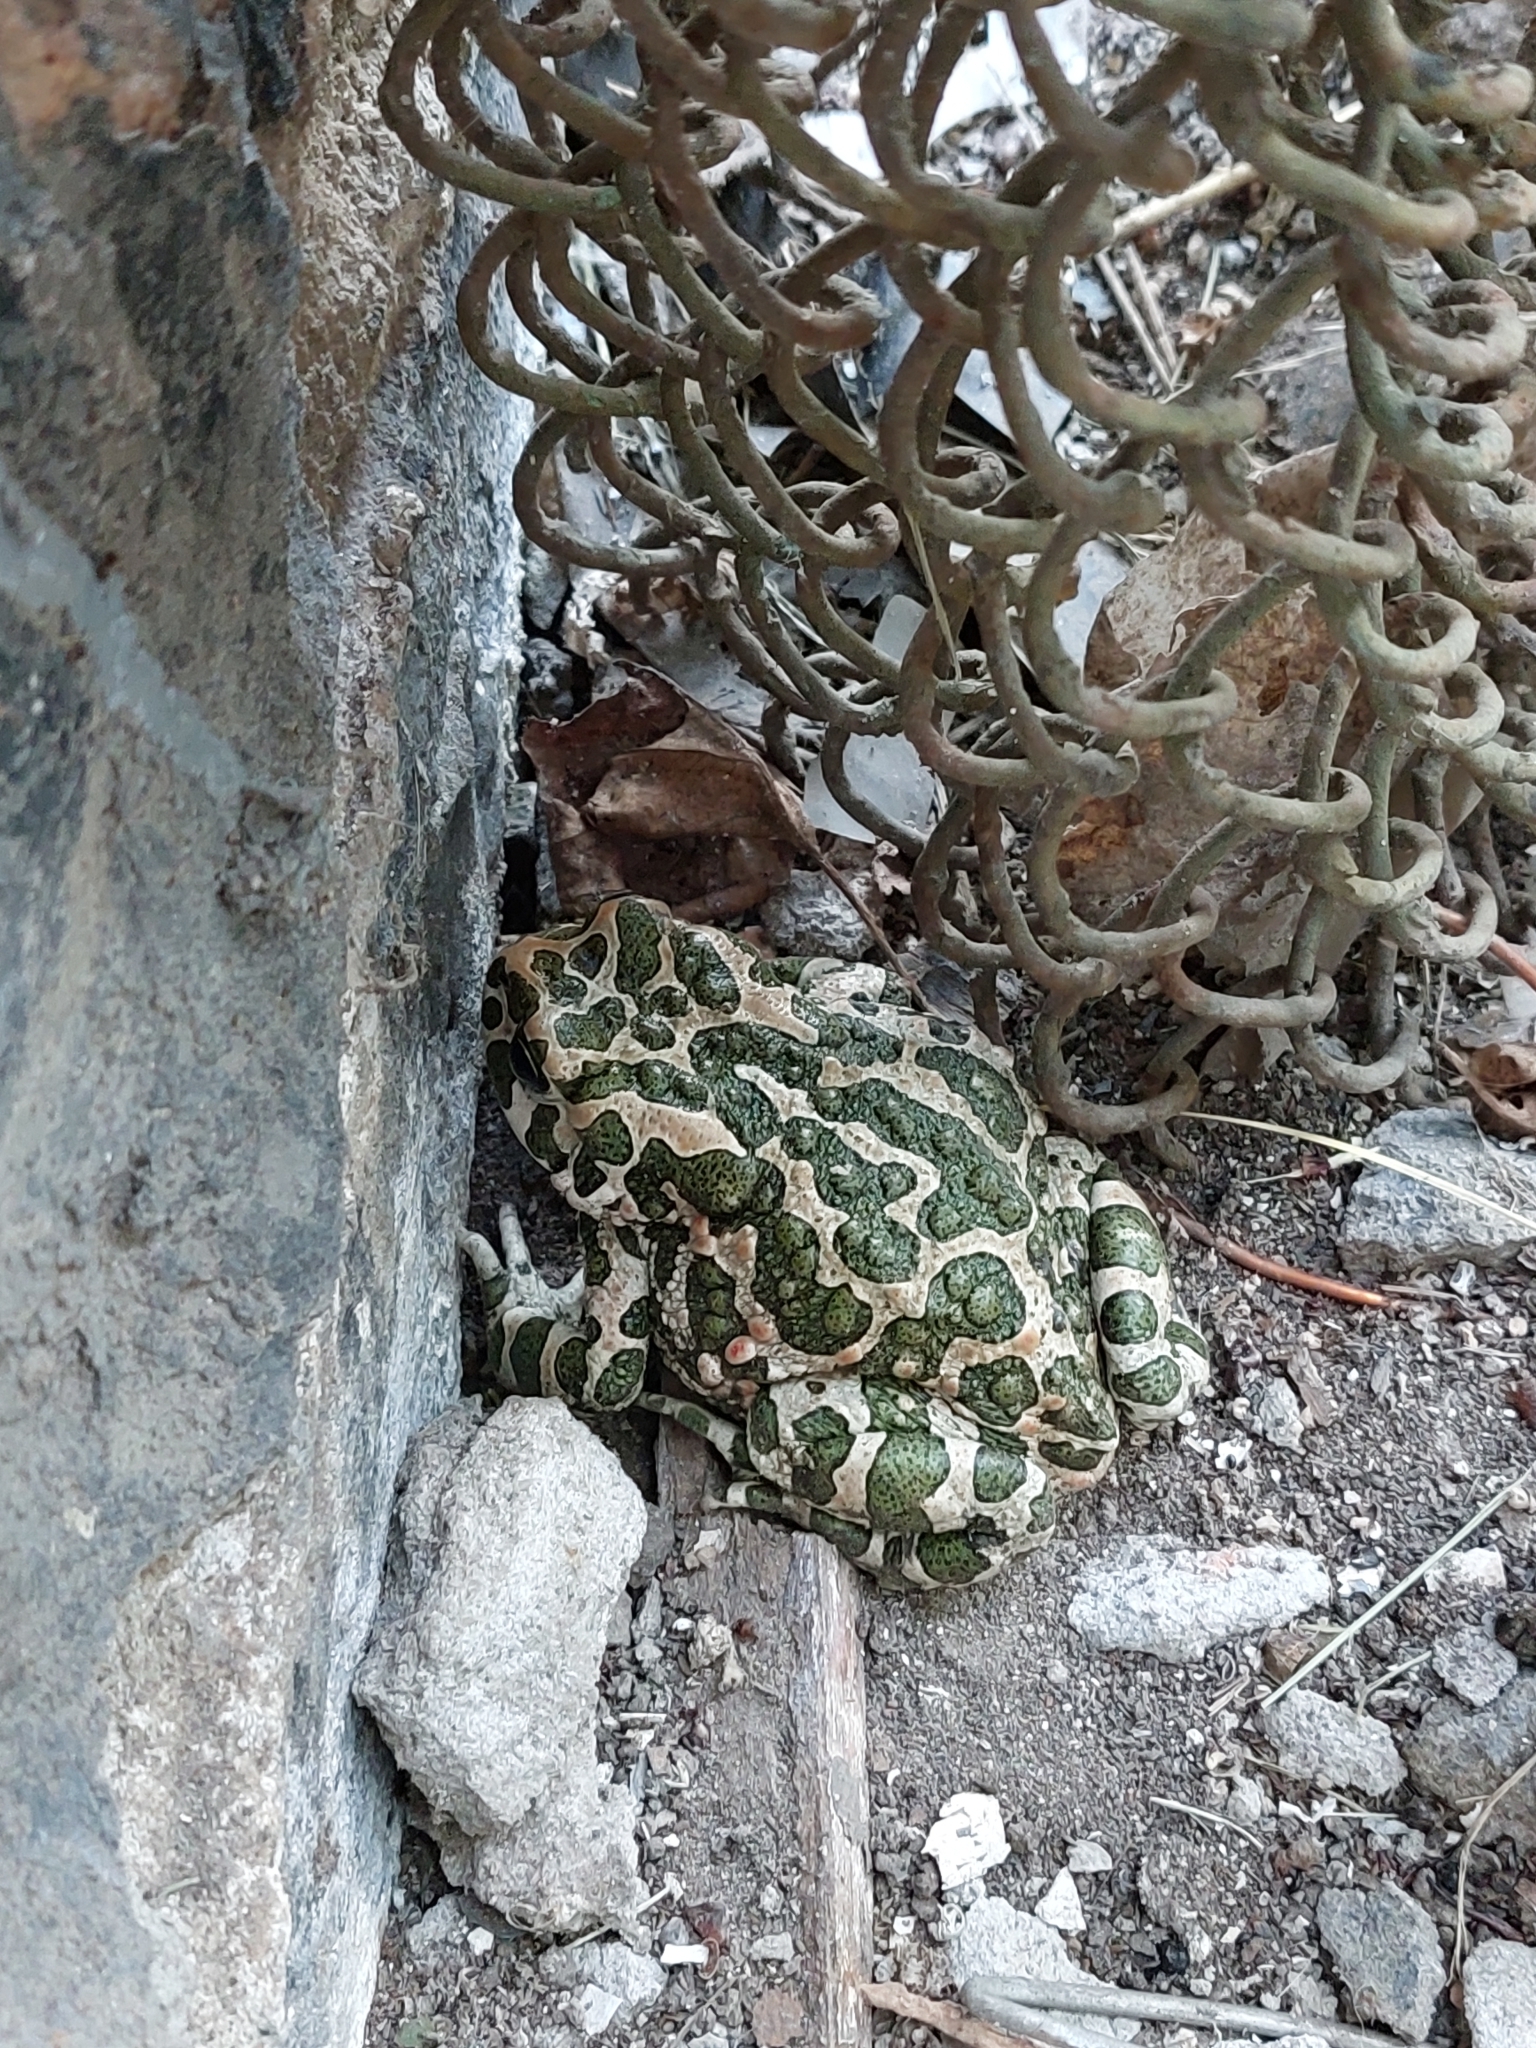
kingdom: Animalia
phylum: Chordata
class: Amphibia
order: Anura
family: Bufonidae
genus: Bufotes
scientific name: Bufotes viridis
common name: European green toad
